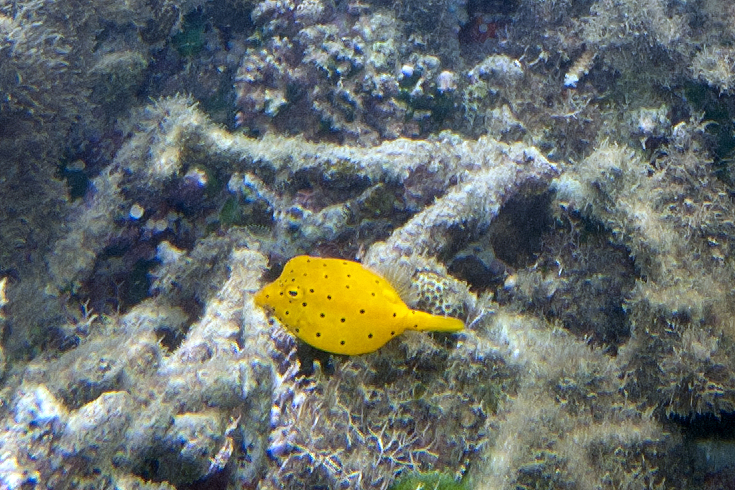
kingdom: Animalia
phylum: Chordata
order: Tetraodontiformes
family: Ostraciidae
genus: Ostracion
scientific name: Ostracion cubicus
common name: Cube trunkfish
